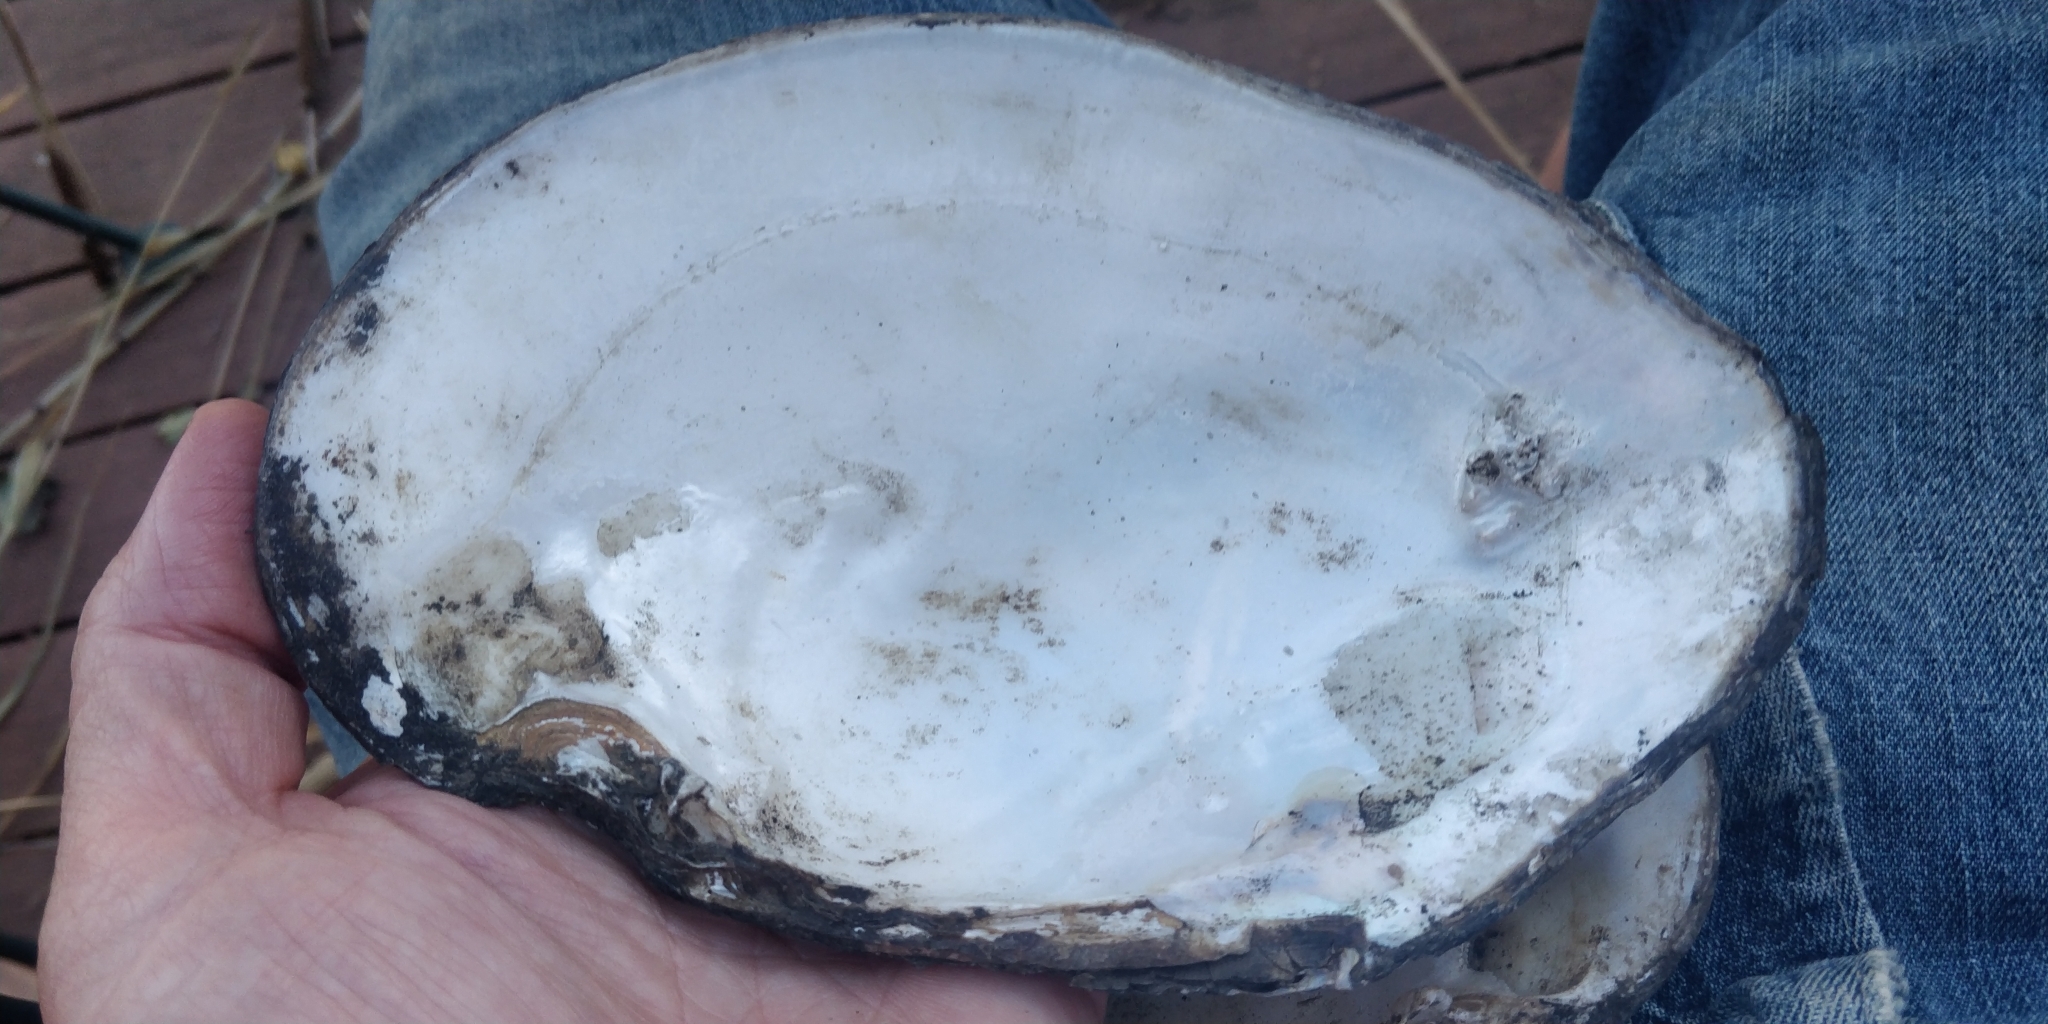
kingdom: Animalia
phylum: Mollusca
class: Bivalvia
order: Unionida
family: Unionidae
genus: Lasmigona
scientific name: Lasmigona complanata
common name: White heelsplitter
